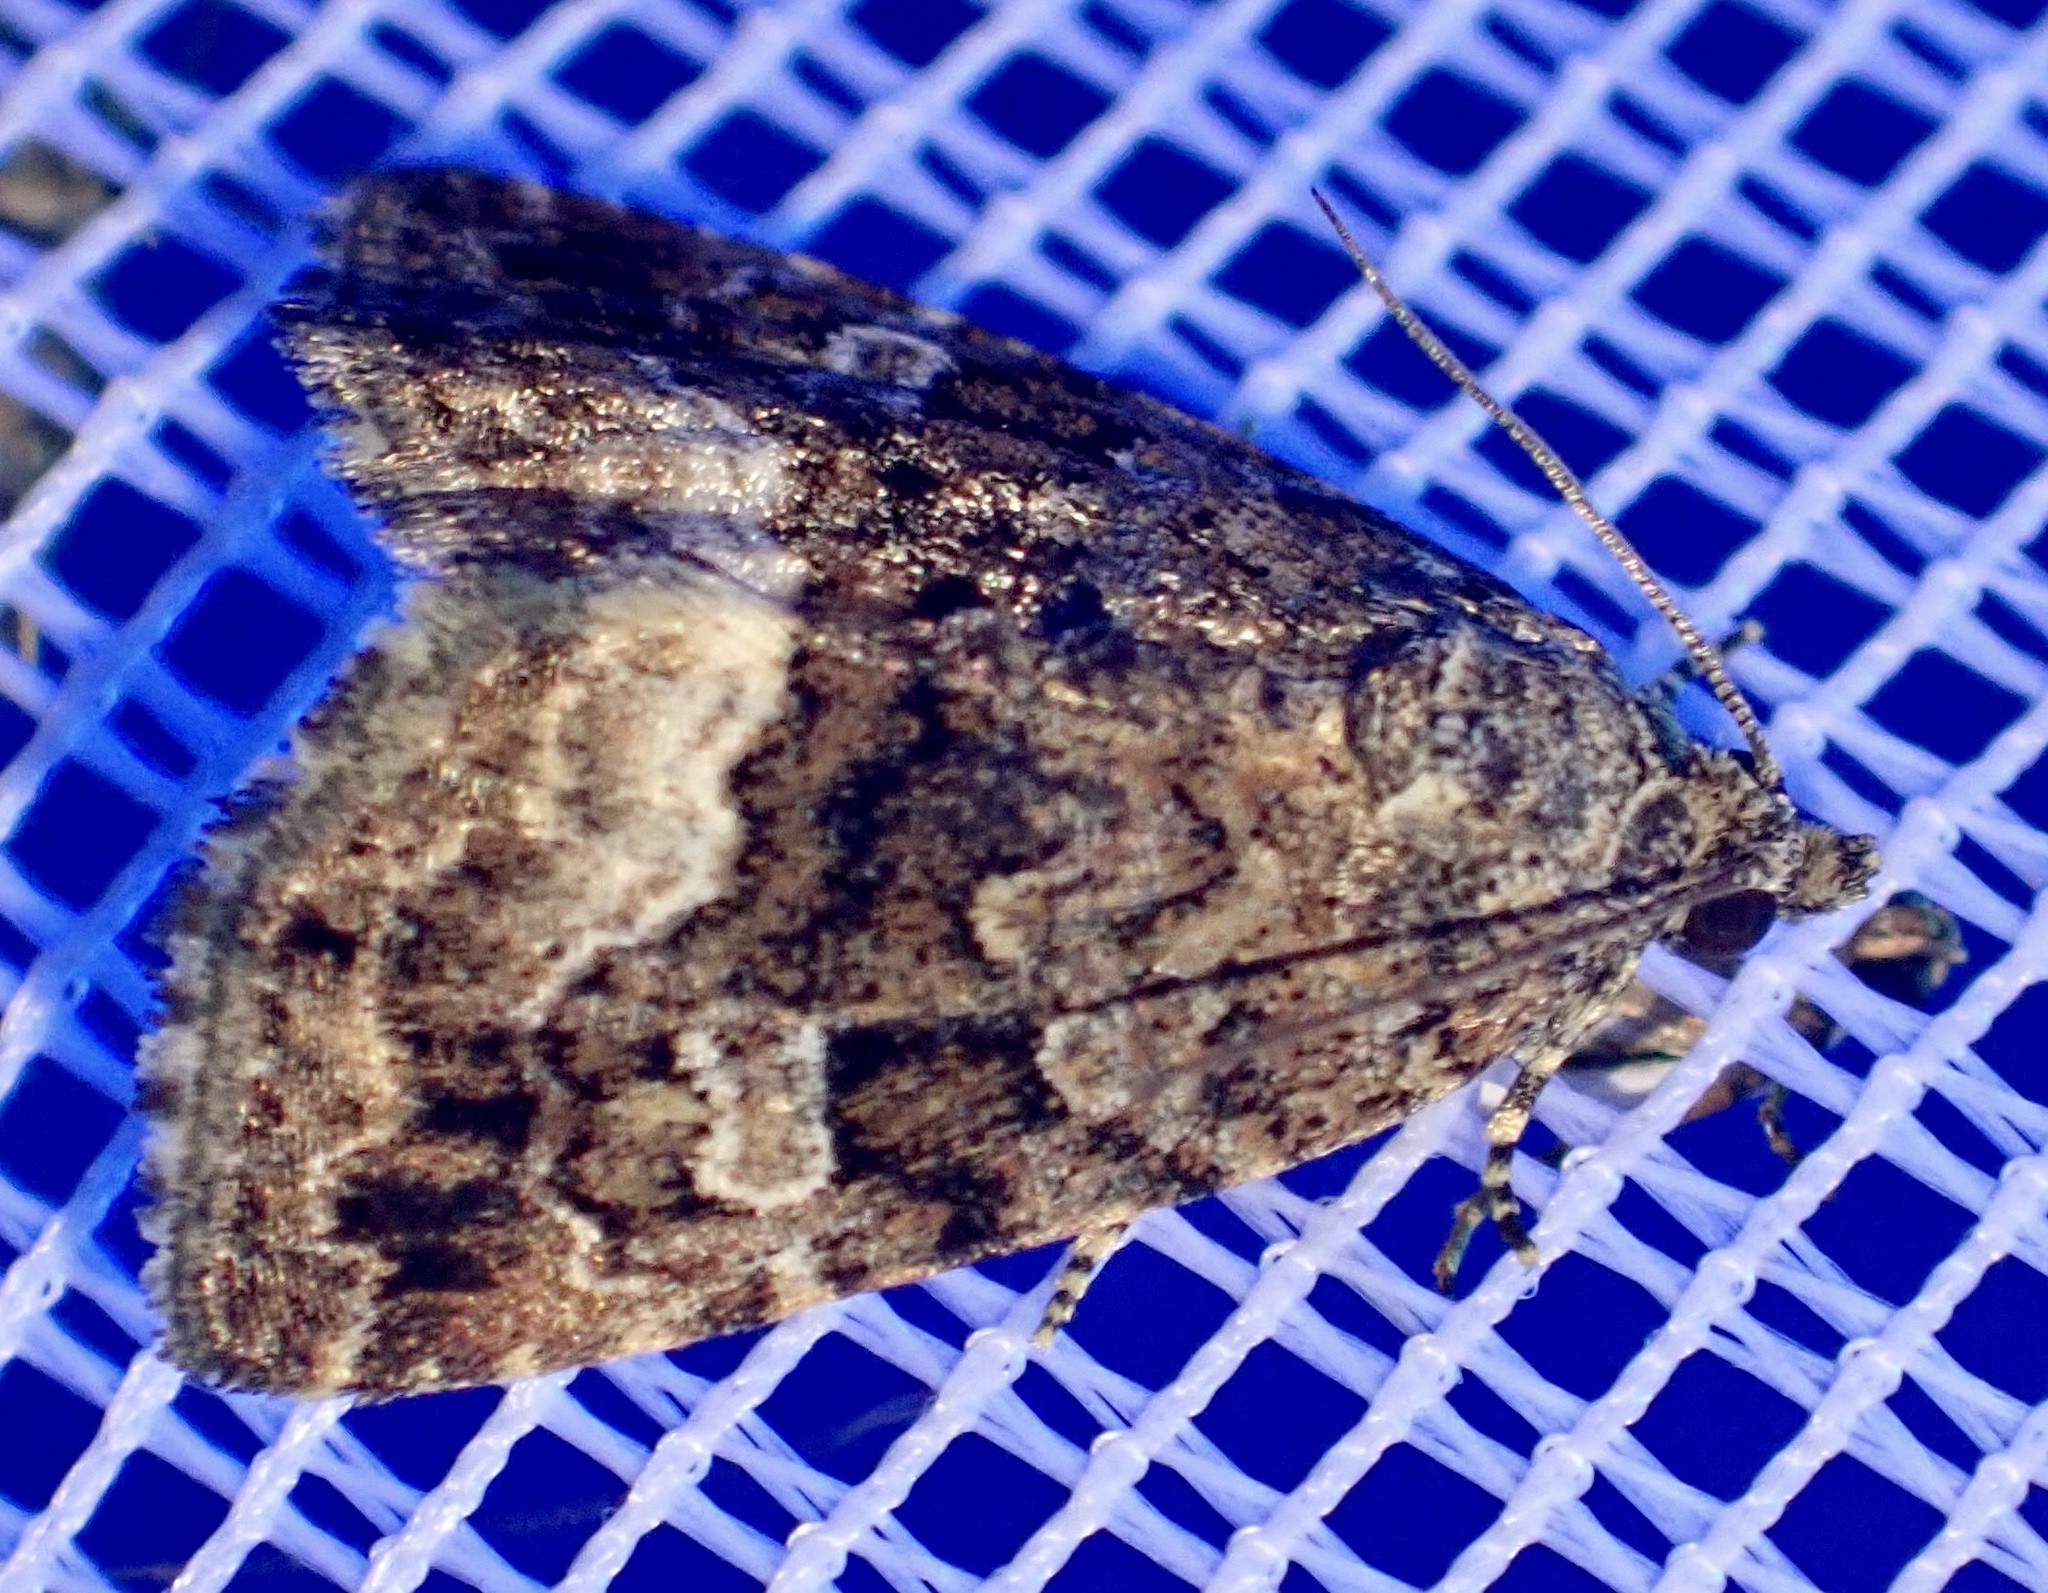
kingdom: Animalia
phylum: Arthropoda
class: Insecta
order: Lepidoptera
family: Noctuidae
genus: Deltote
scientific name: Deltote pygarga
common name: Marbled white spot
